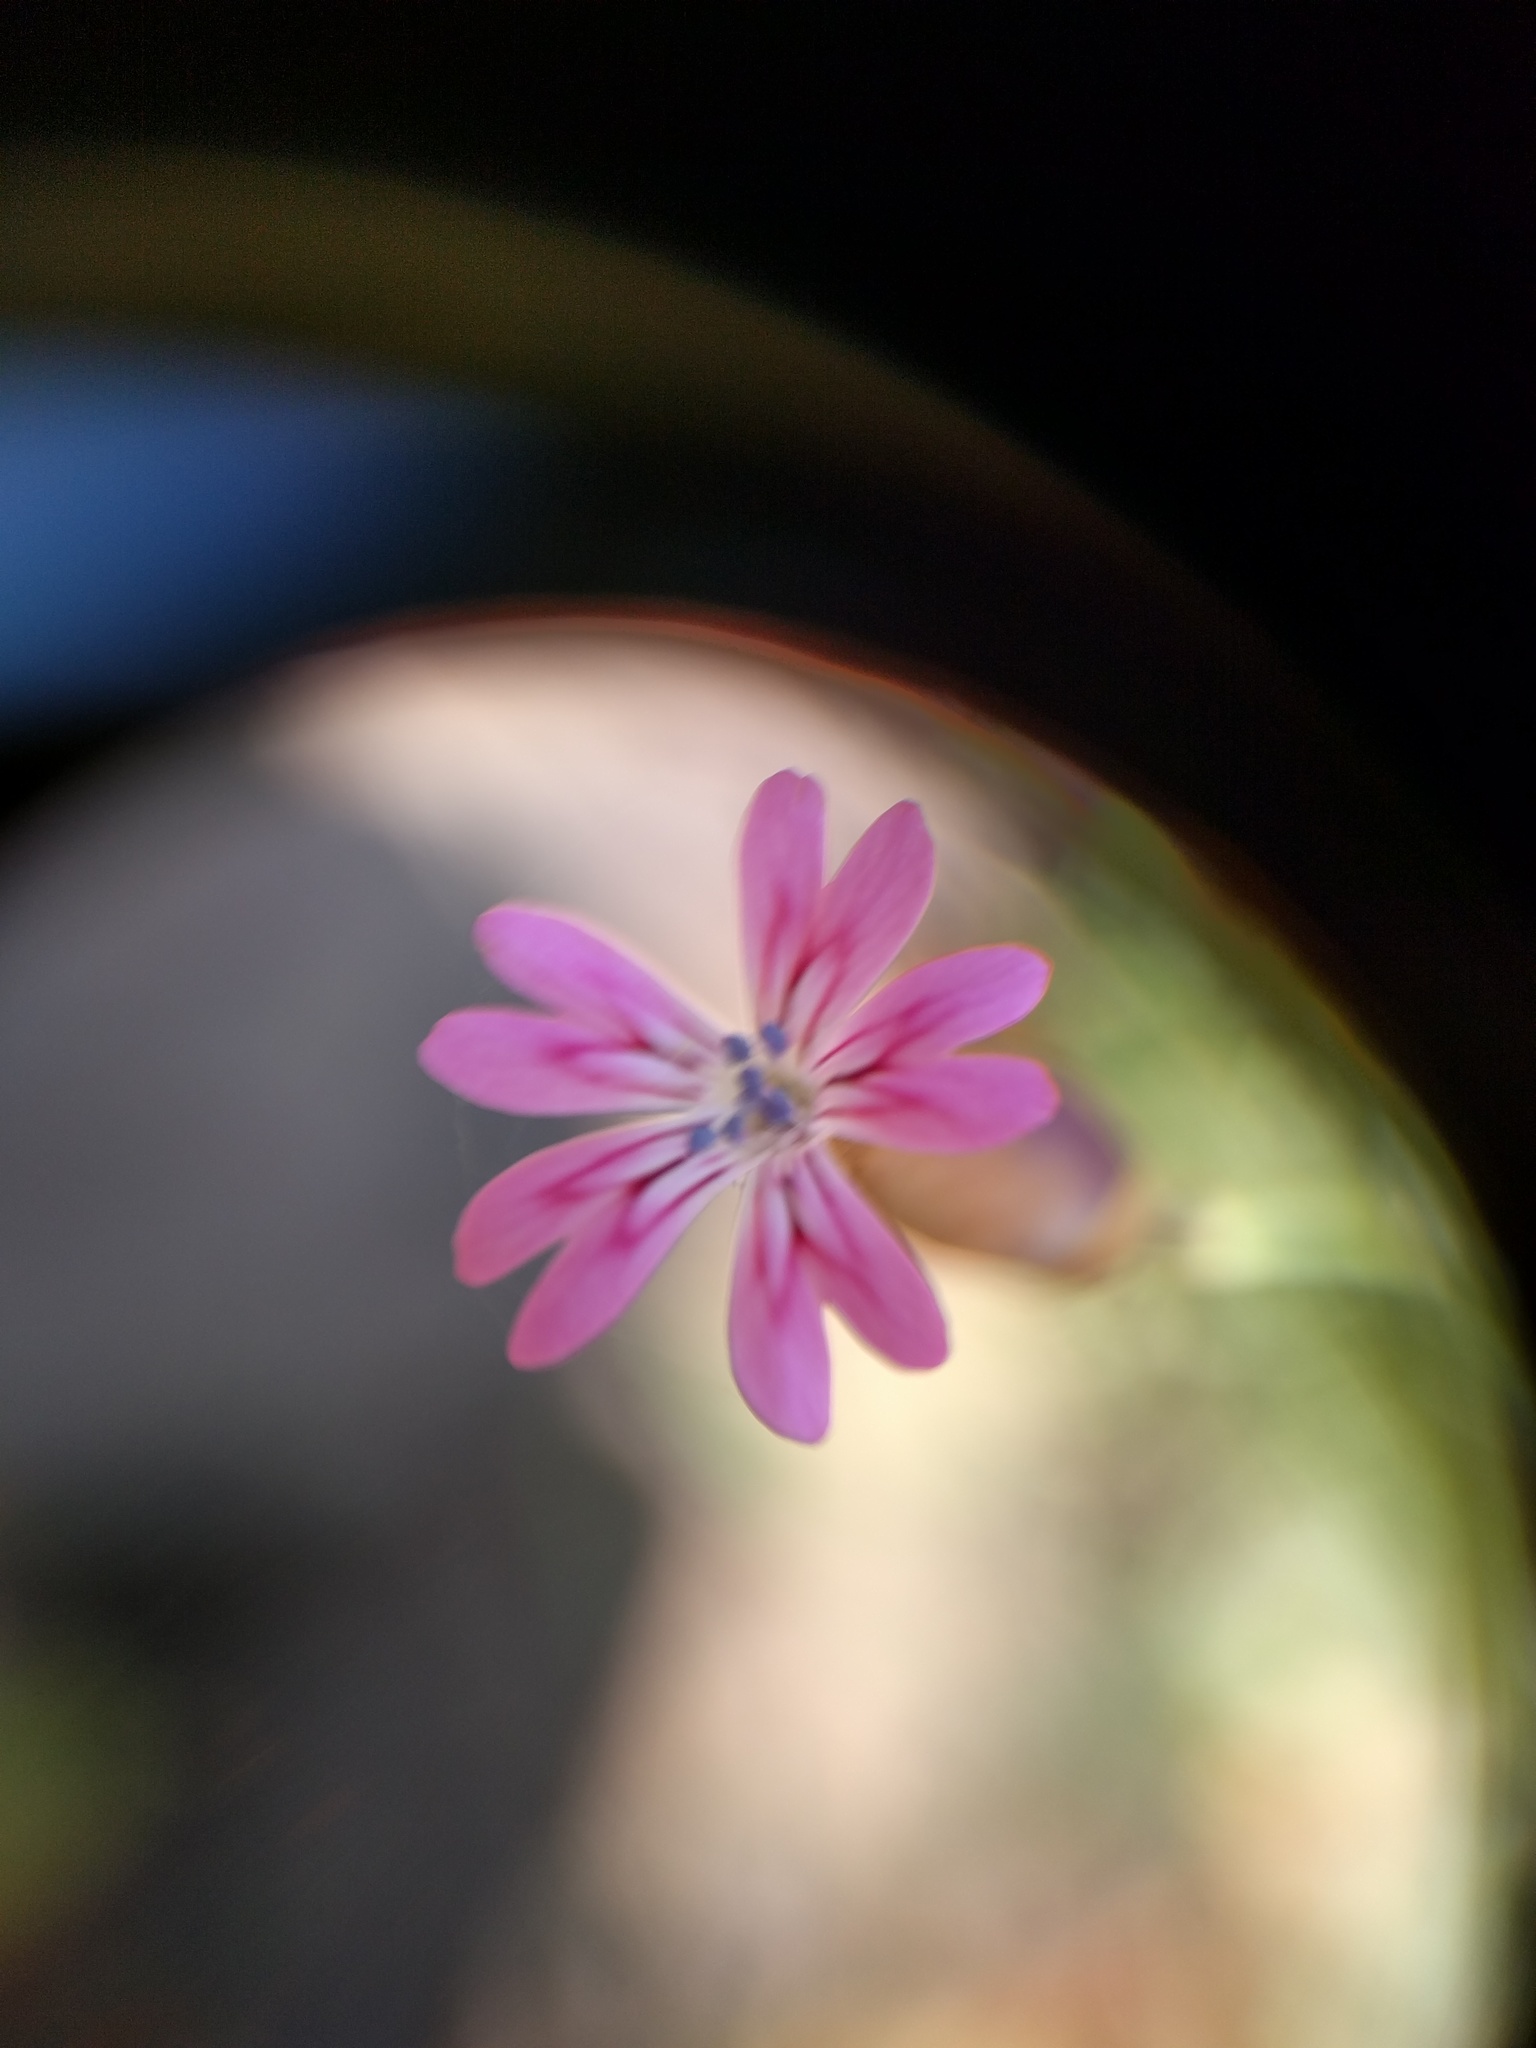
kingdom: Plantae
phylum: Tracheophyta
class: Magnoliopsida
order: Caryophyllales
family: Caryophyllaceae
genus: Petrorhagia
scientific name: Petrorhagia dubia
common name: Hairypink
